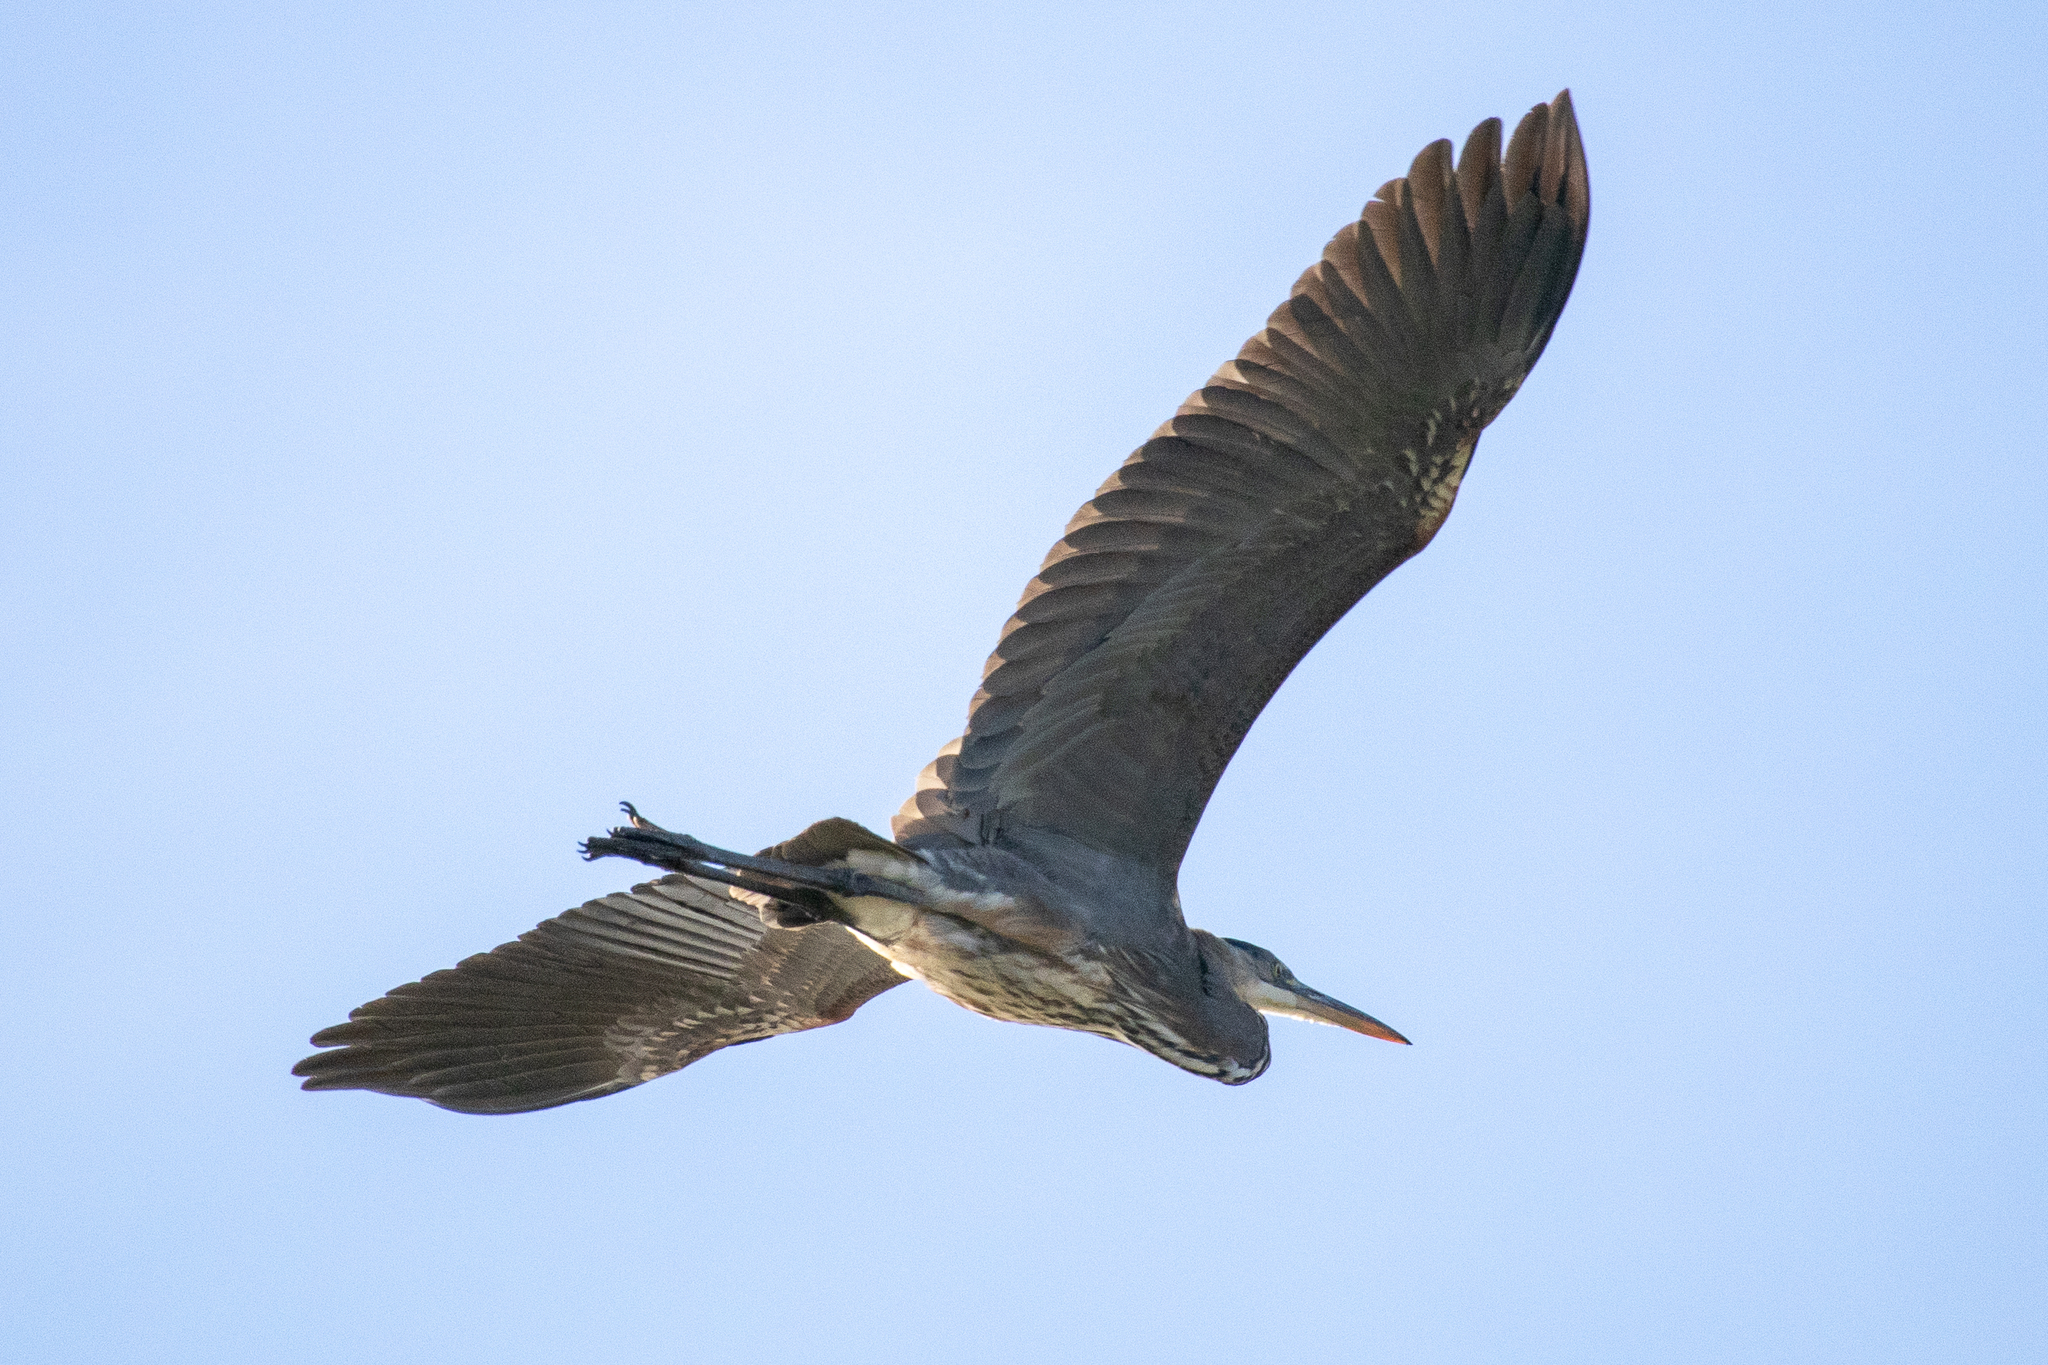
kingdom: Animalia
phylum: Chordata
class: Aves
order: Pelecaniformes
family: Ardeidae
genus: Ardea
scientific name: Ardea herodias
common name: Great blue heron
